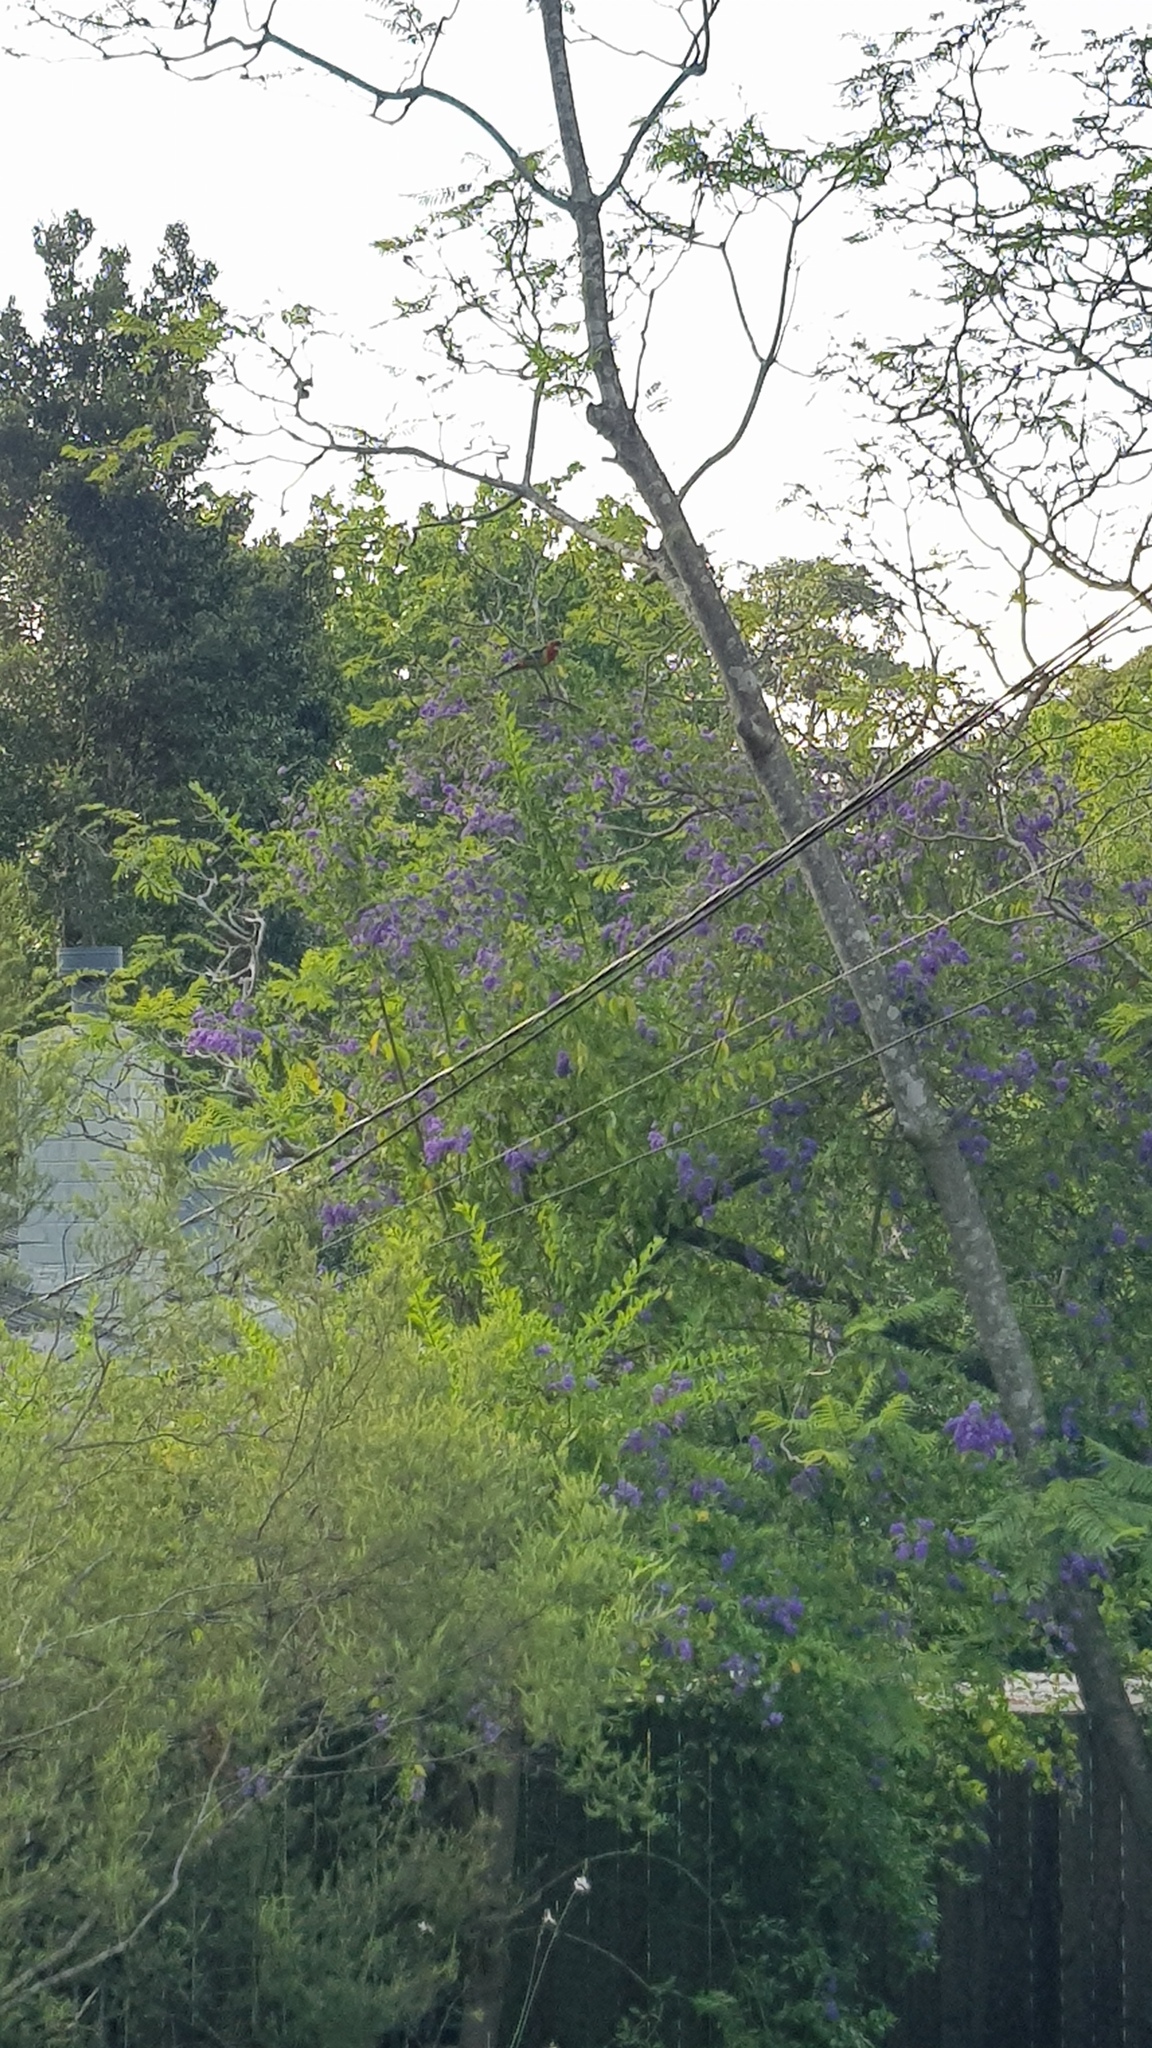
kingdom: Animalia
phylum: Chordata
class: Aves
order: Psittaciformes
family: Psittacidae
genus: Platycercus
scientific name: Platycercus eximius
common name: Eastern rosella
